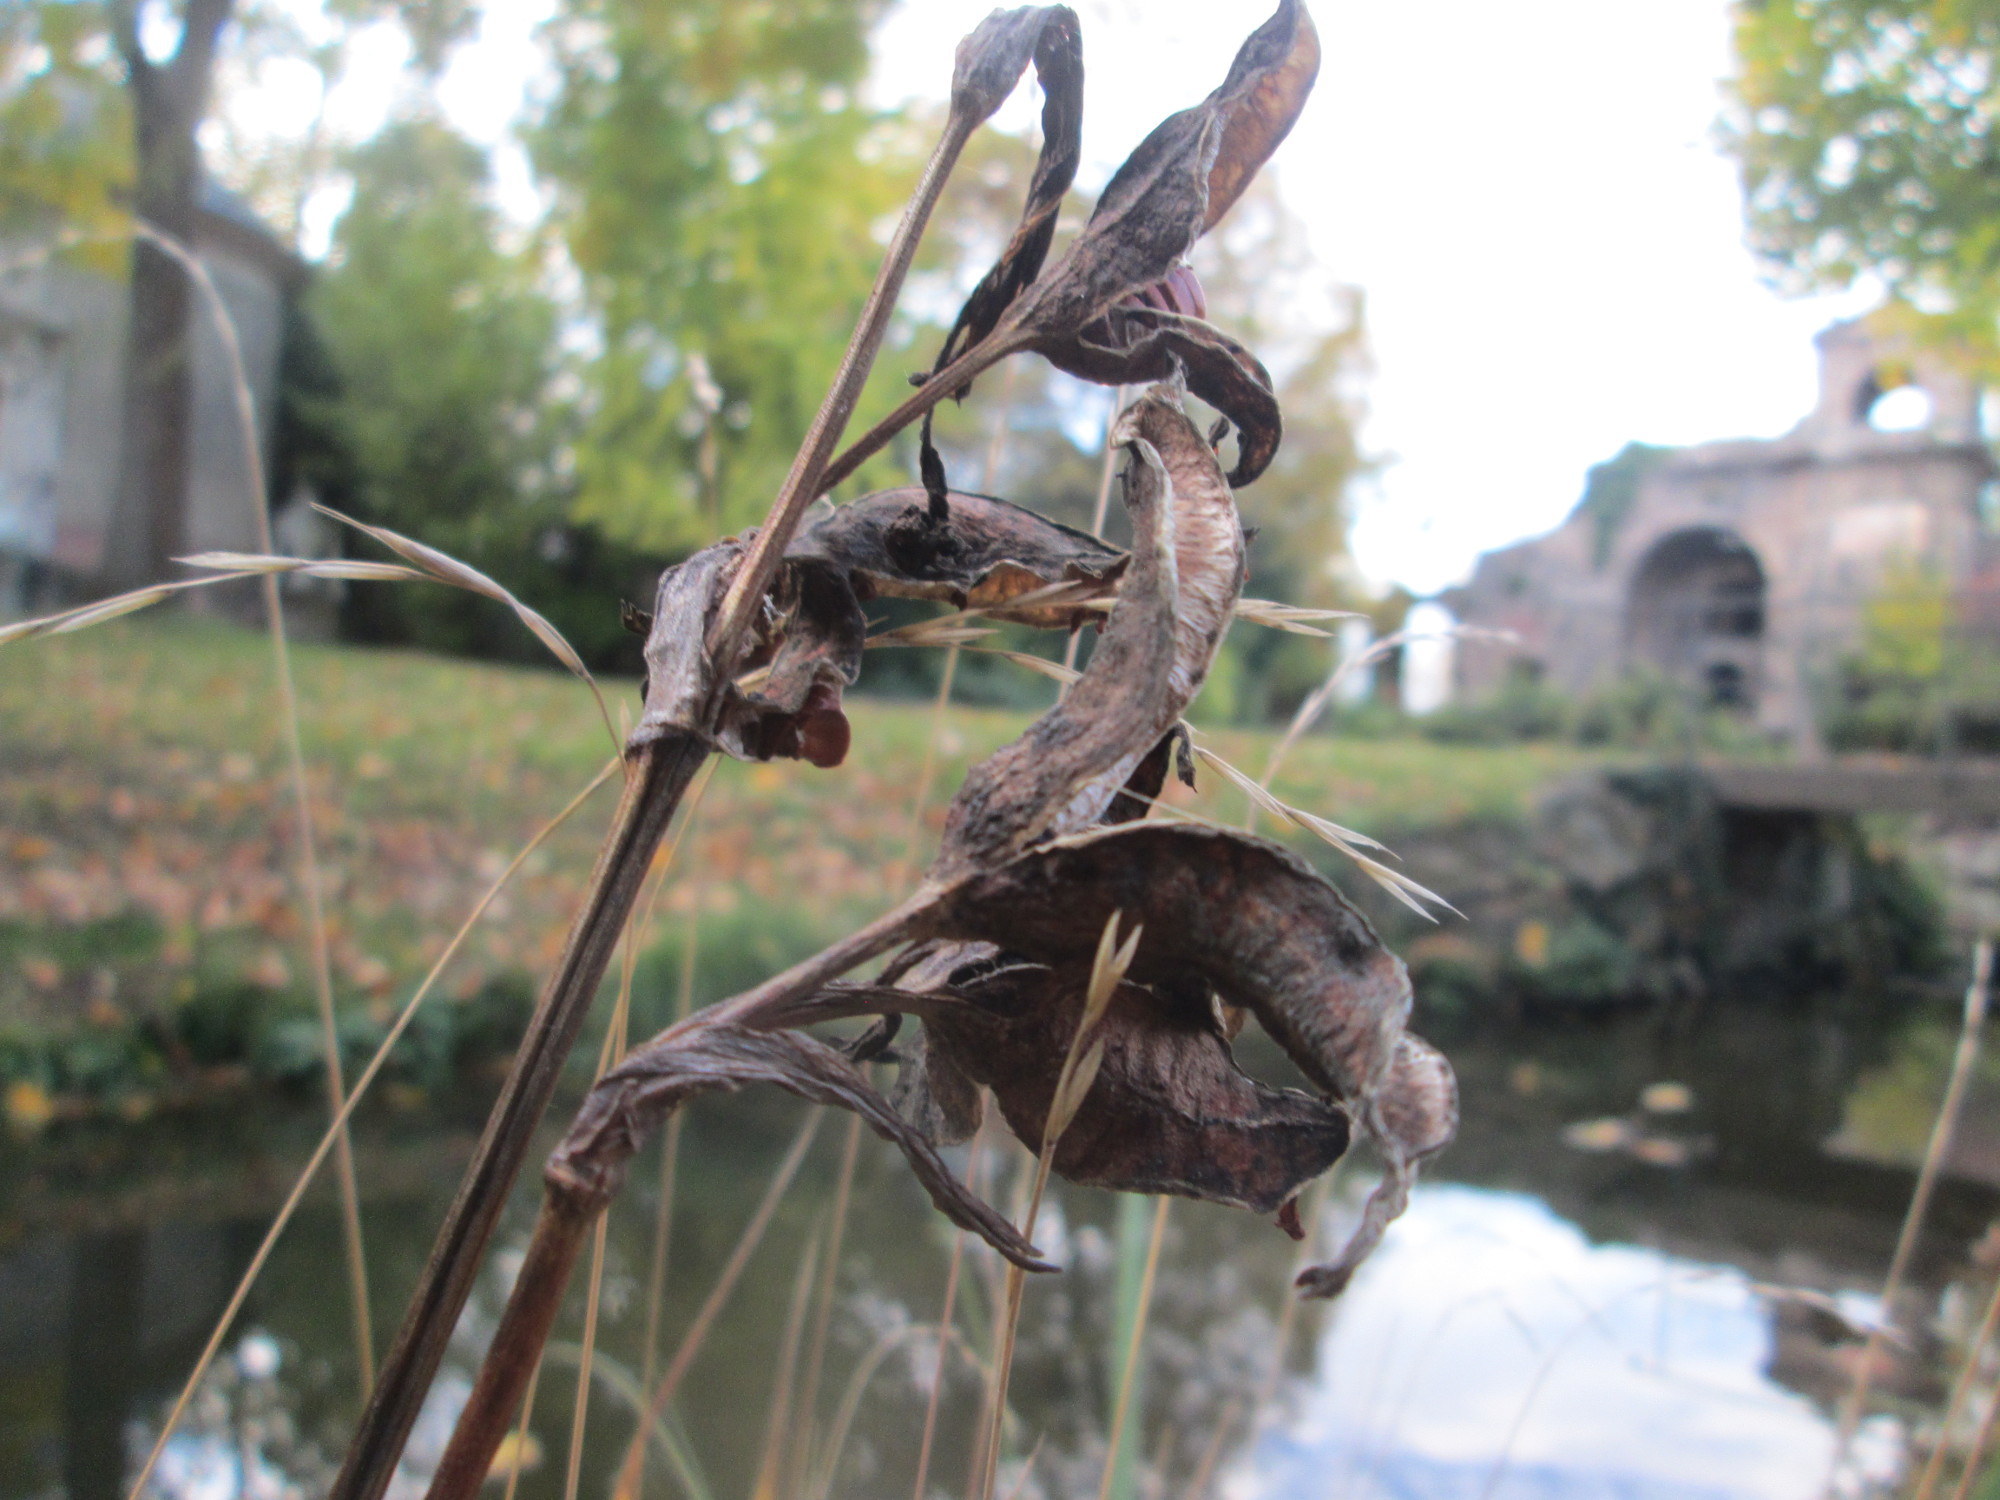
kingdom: Plantae
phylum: Tracheophyta
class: Liliopsida
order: Asparagales
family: Iridaceae
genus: Iris
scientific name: Iris pseudacorus
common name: Yellow flag
